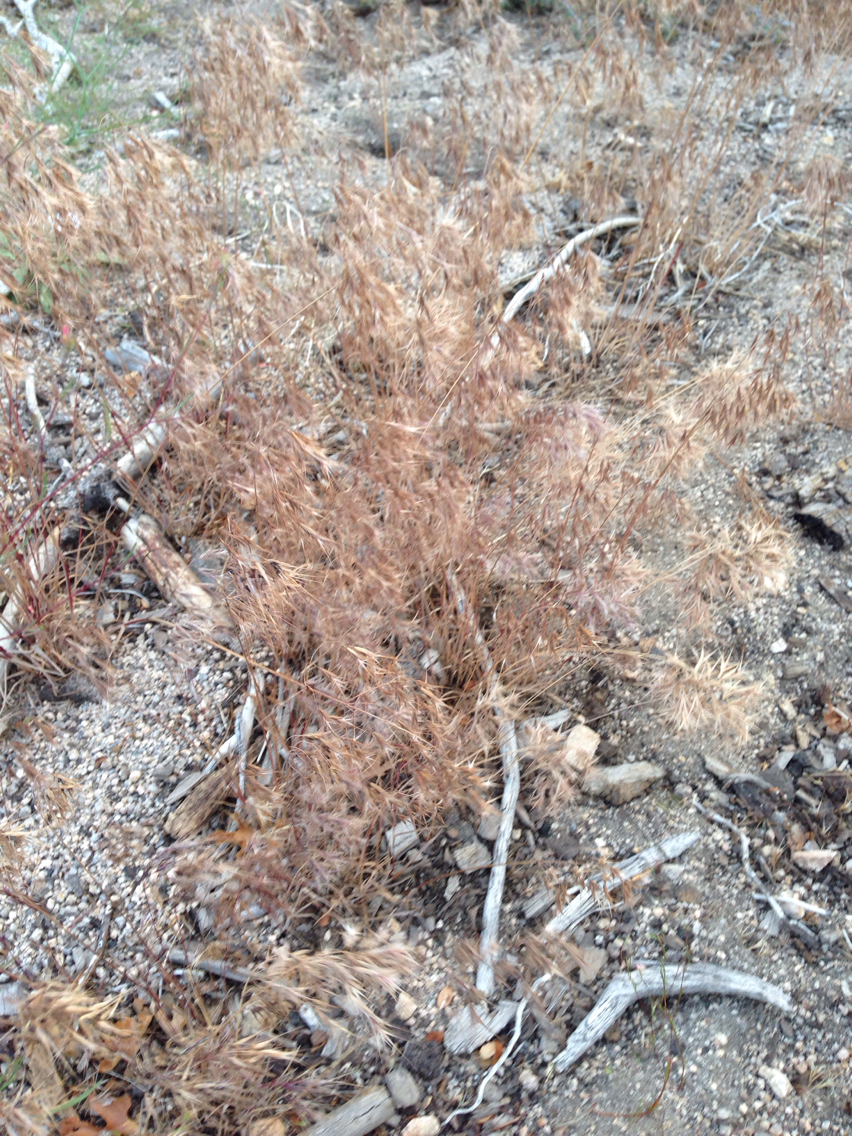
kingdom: Plantae
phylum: Tracheophyta
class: Liliopsida
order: Poales
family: Poaceae
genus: Bromus
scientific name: Bromus tectorum
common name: Cheatgrass
